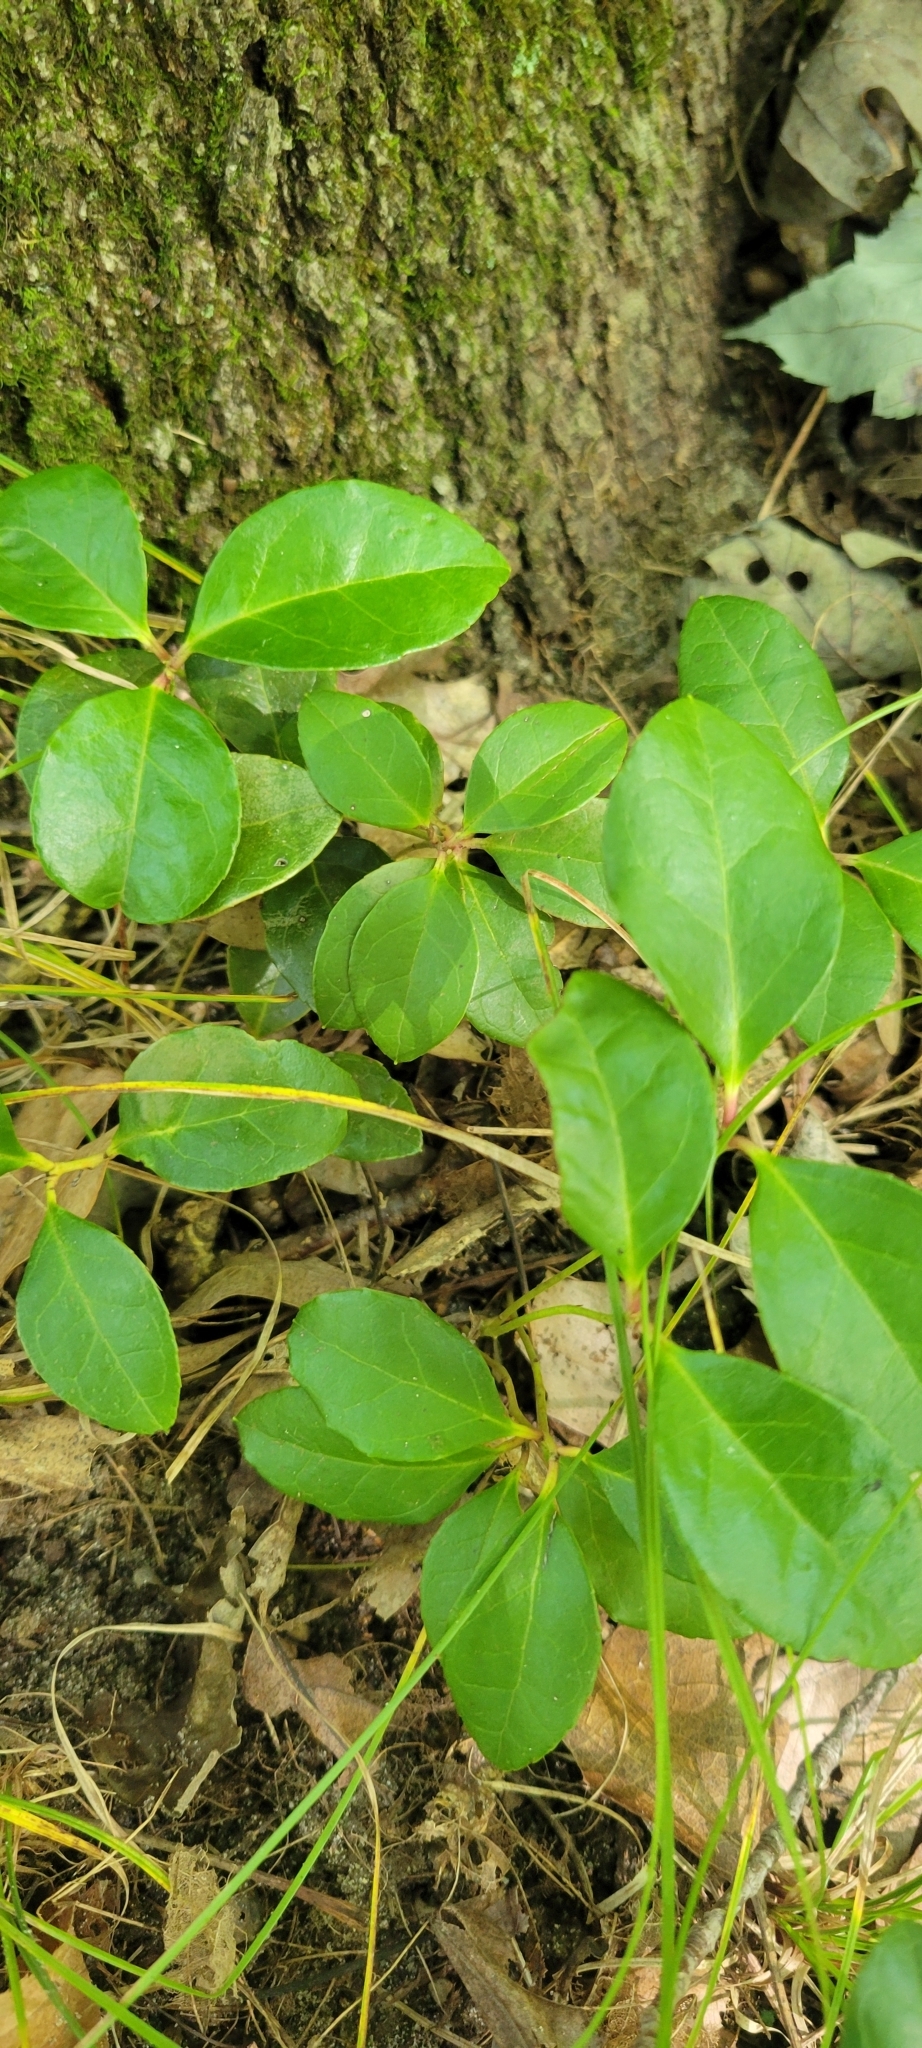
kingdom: Plantae
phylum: Tracheophyta
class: Magnoliopsida
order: Ericales
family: Ericaceae
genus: Gaultheria
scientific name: Gaultheria procumbens
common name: Checkerberry
